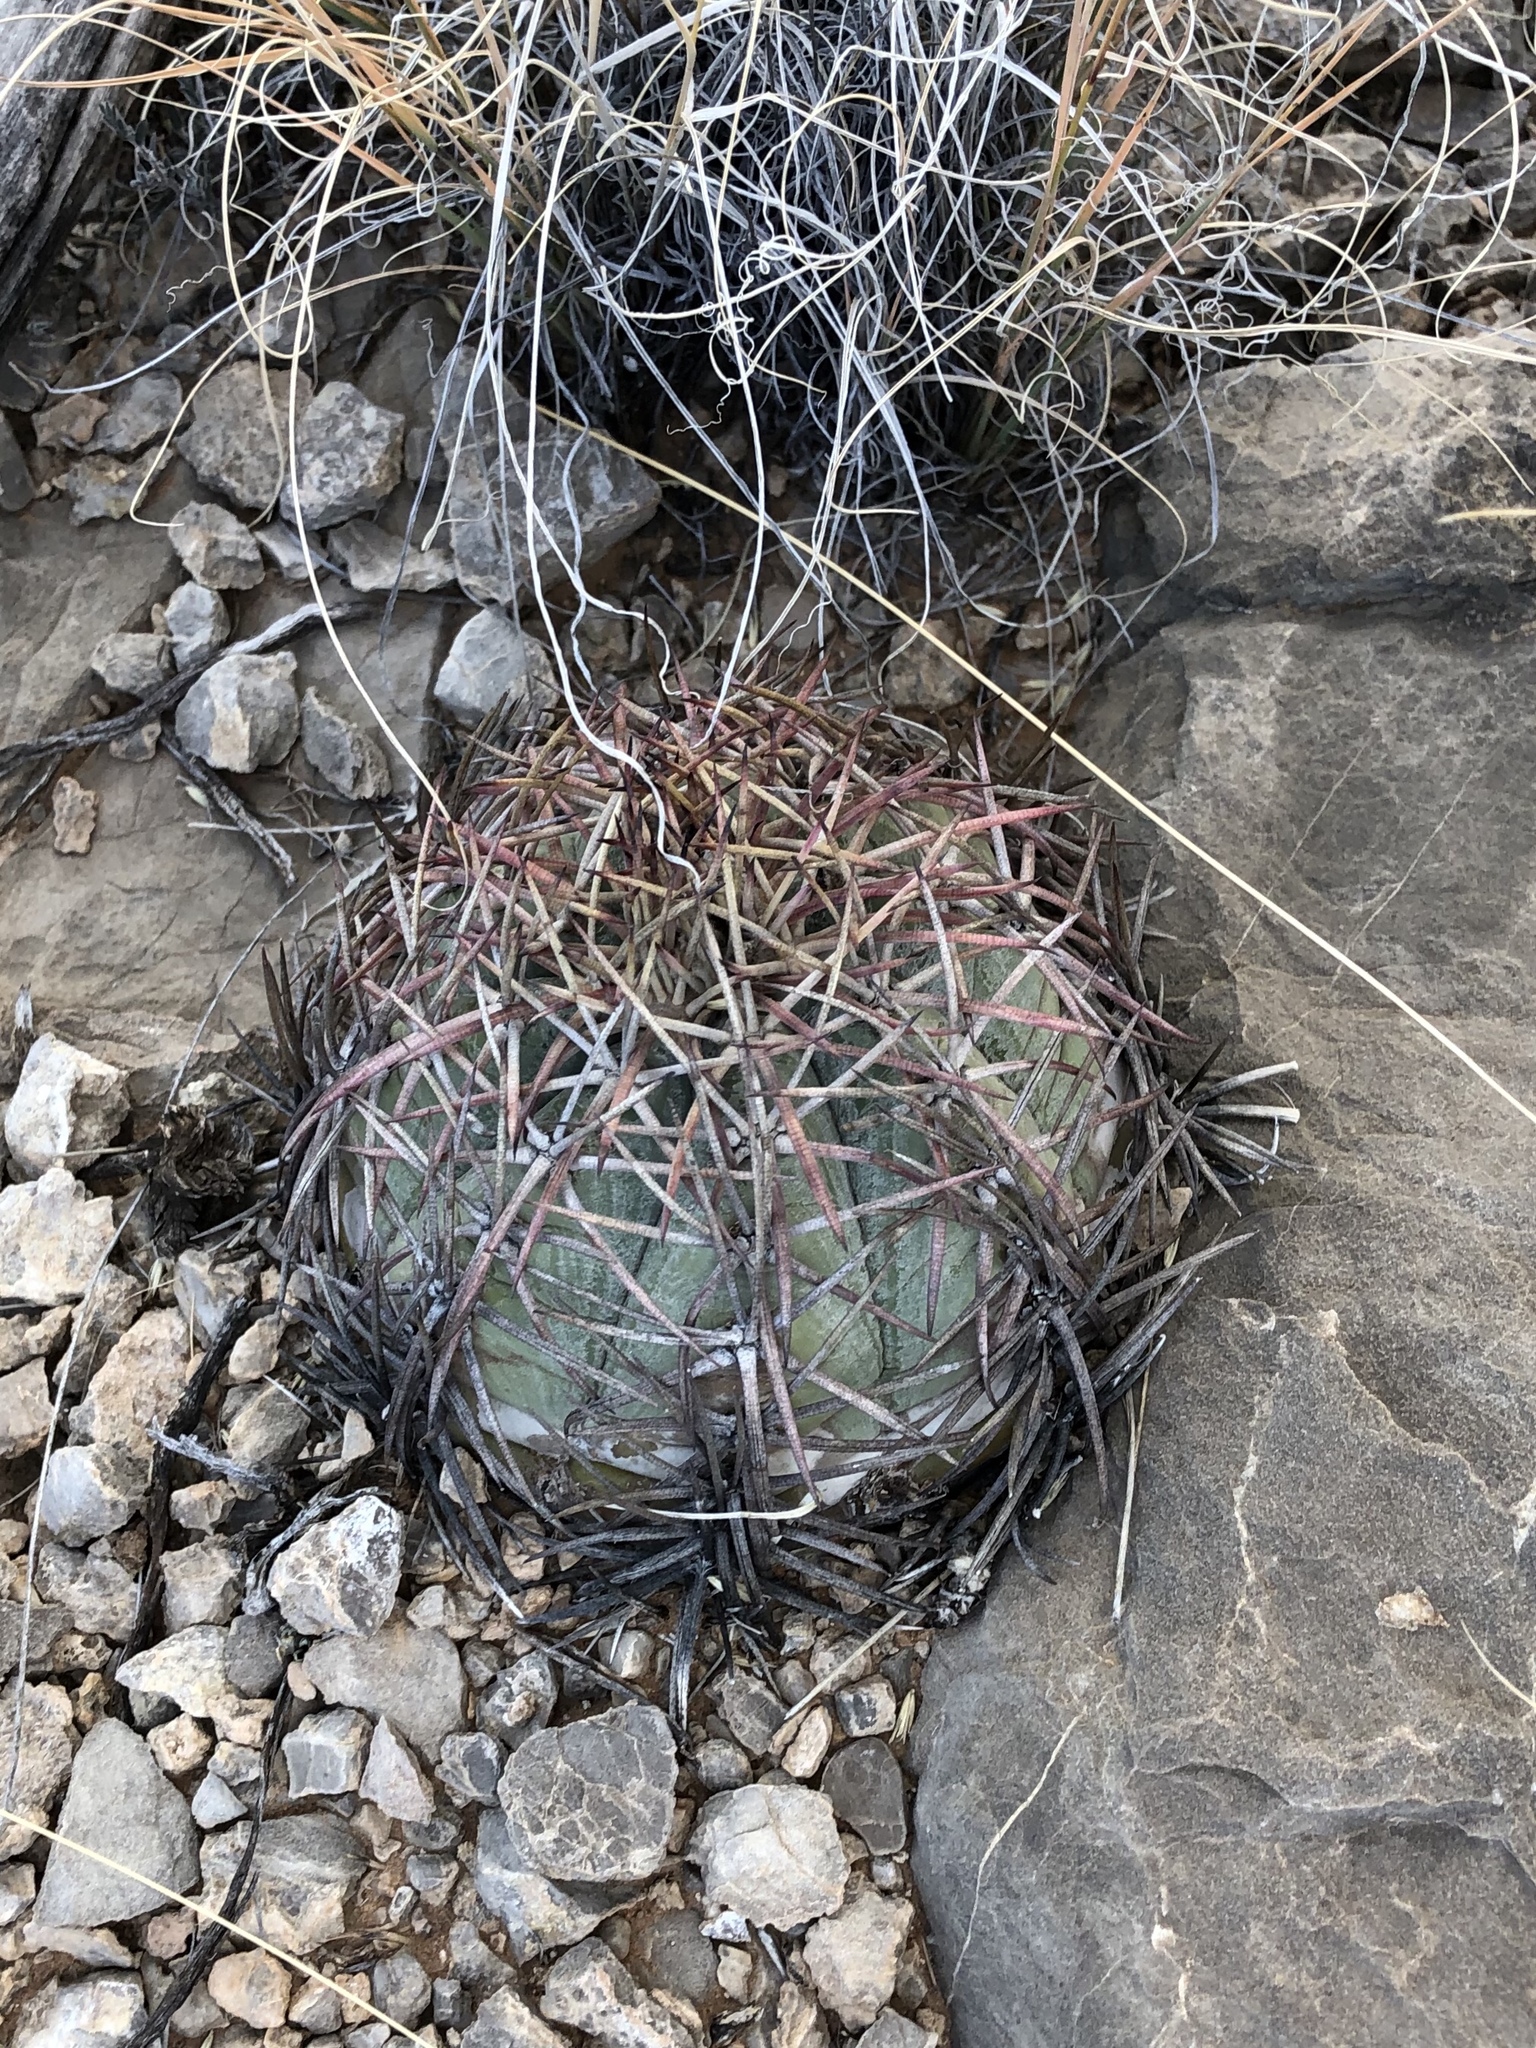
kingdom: Plantae
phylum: Tracheophyta
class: Magnoliopsida
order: Caryophyllales
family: Cactaceae
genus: Echinocactus
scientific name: Echinocactus horizonthalonius
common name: Devilshead
